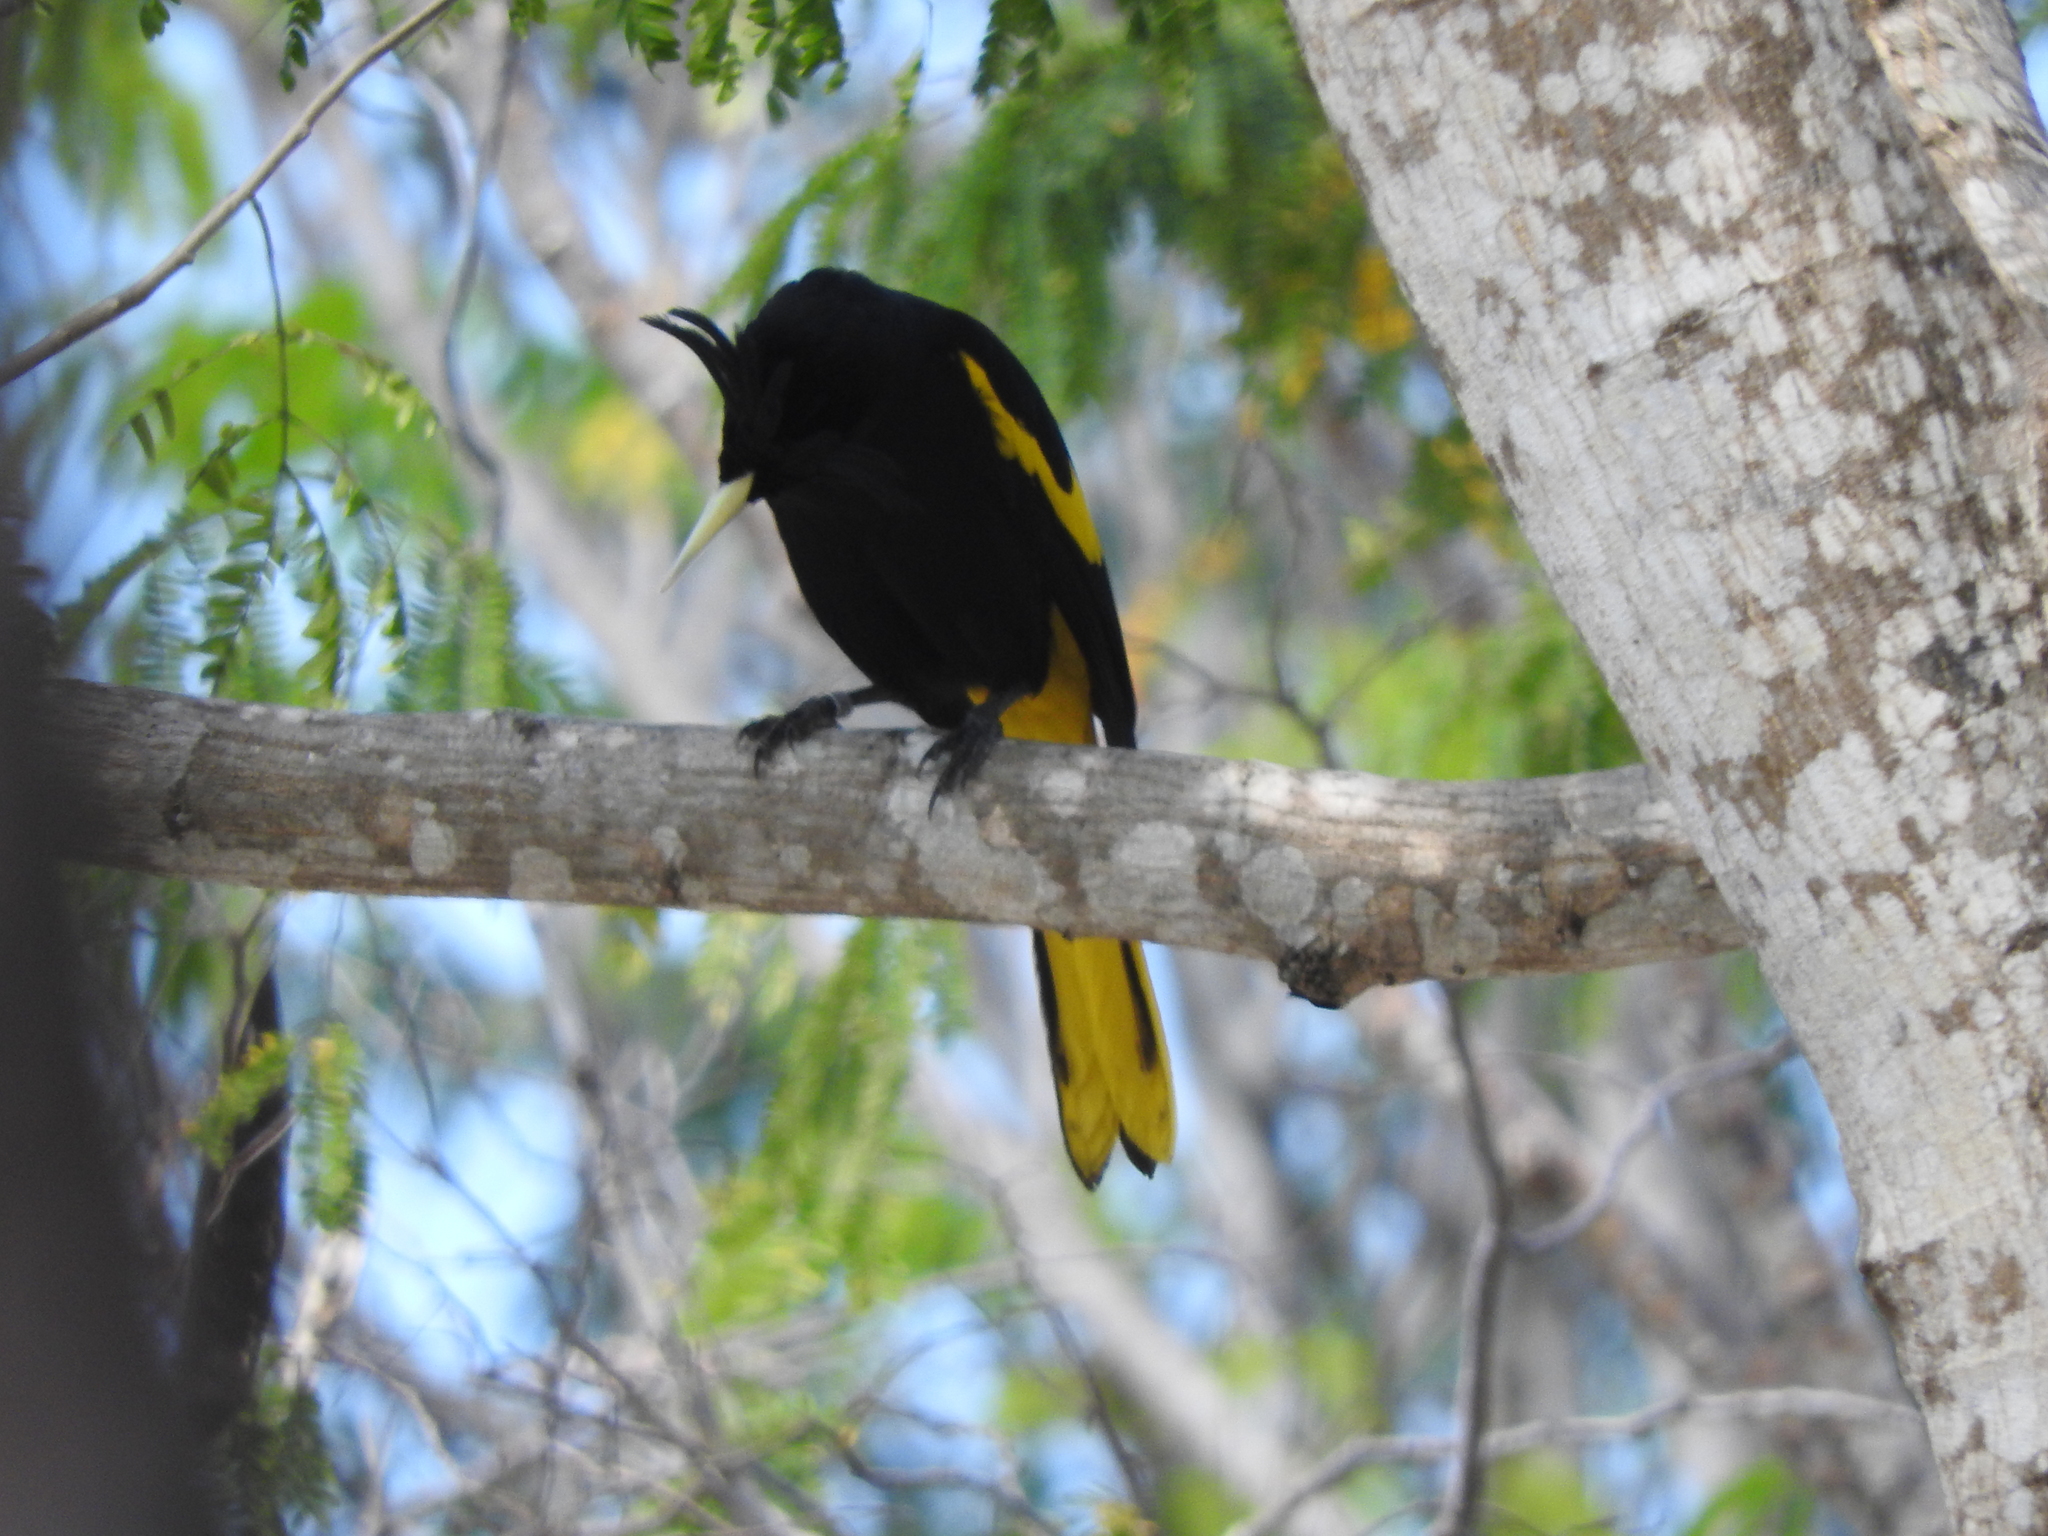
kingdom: Animalia
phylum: Chordata
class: Aves
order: Passeriformes
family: Icteridae
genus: Cacicus
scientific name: Cacicus melanicterus
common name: Yellow-winged cacique
